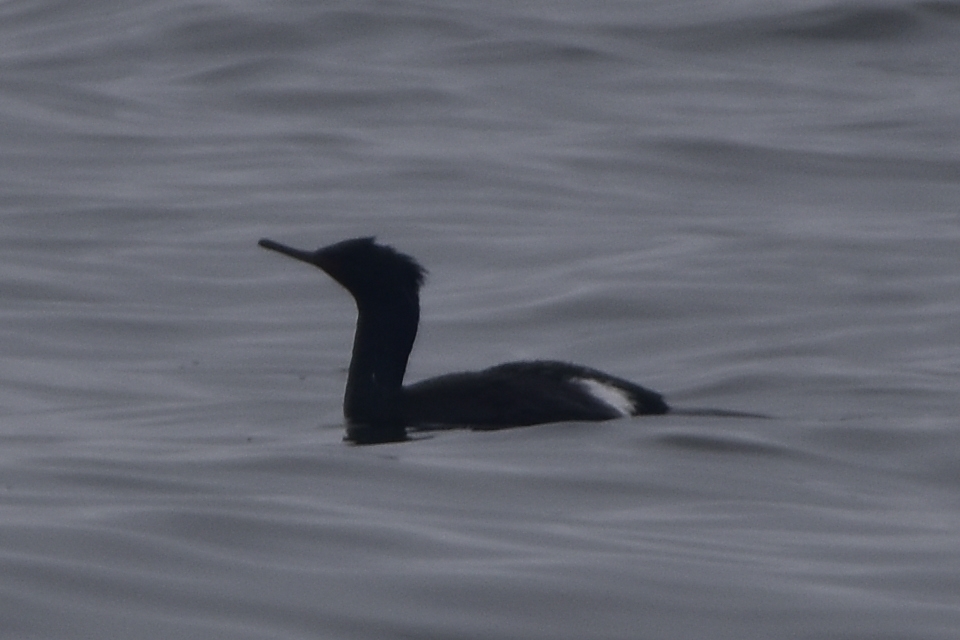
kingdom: Animalia
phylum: Chordata
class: Aves
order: Suliformes
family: Phalacrocoracidae
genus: Phalacrocorax
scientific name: Phalacrocorax pelagicus
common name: Pelagic cormorant
